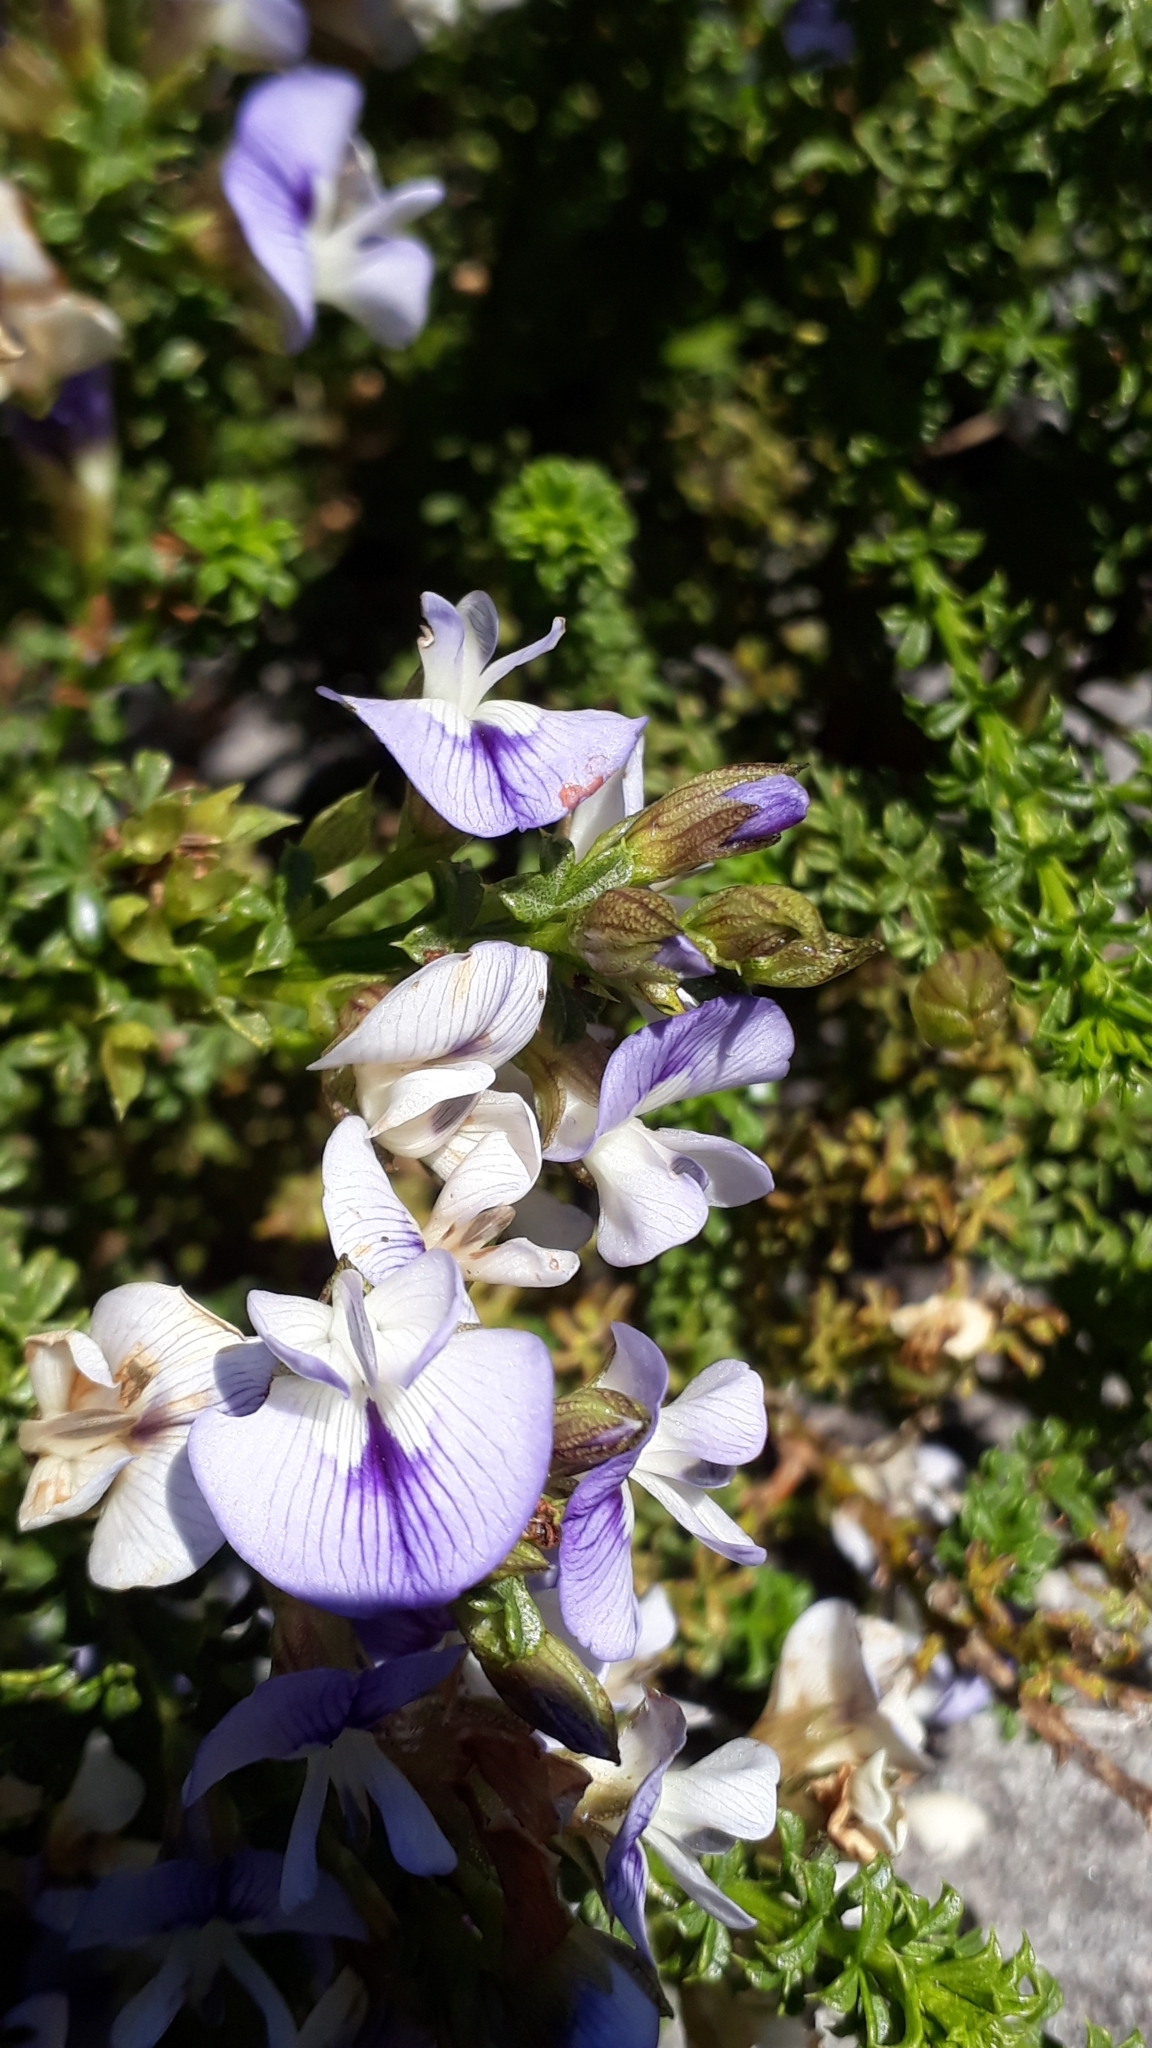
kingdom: Plantae
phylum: Tracheophyta
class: Magnoliopsida
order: Fabales
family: Fabaceae
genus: Psoralea
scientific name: Psoralea aculeata
